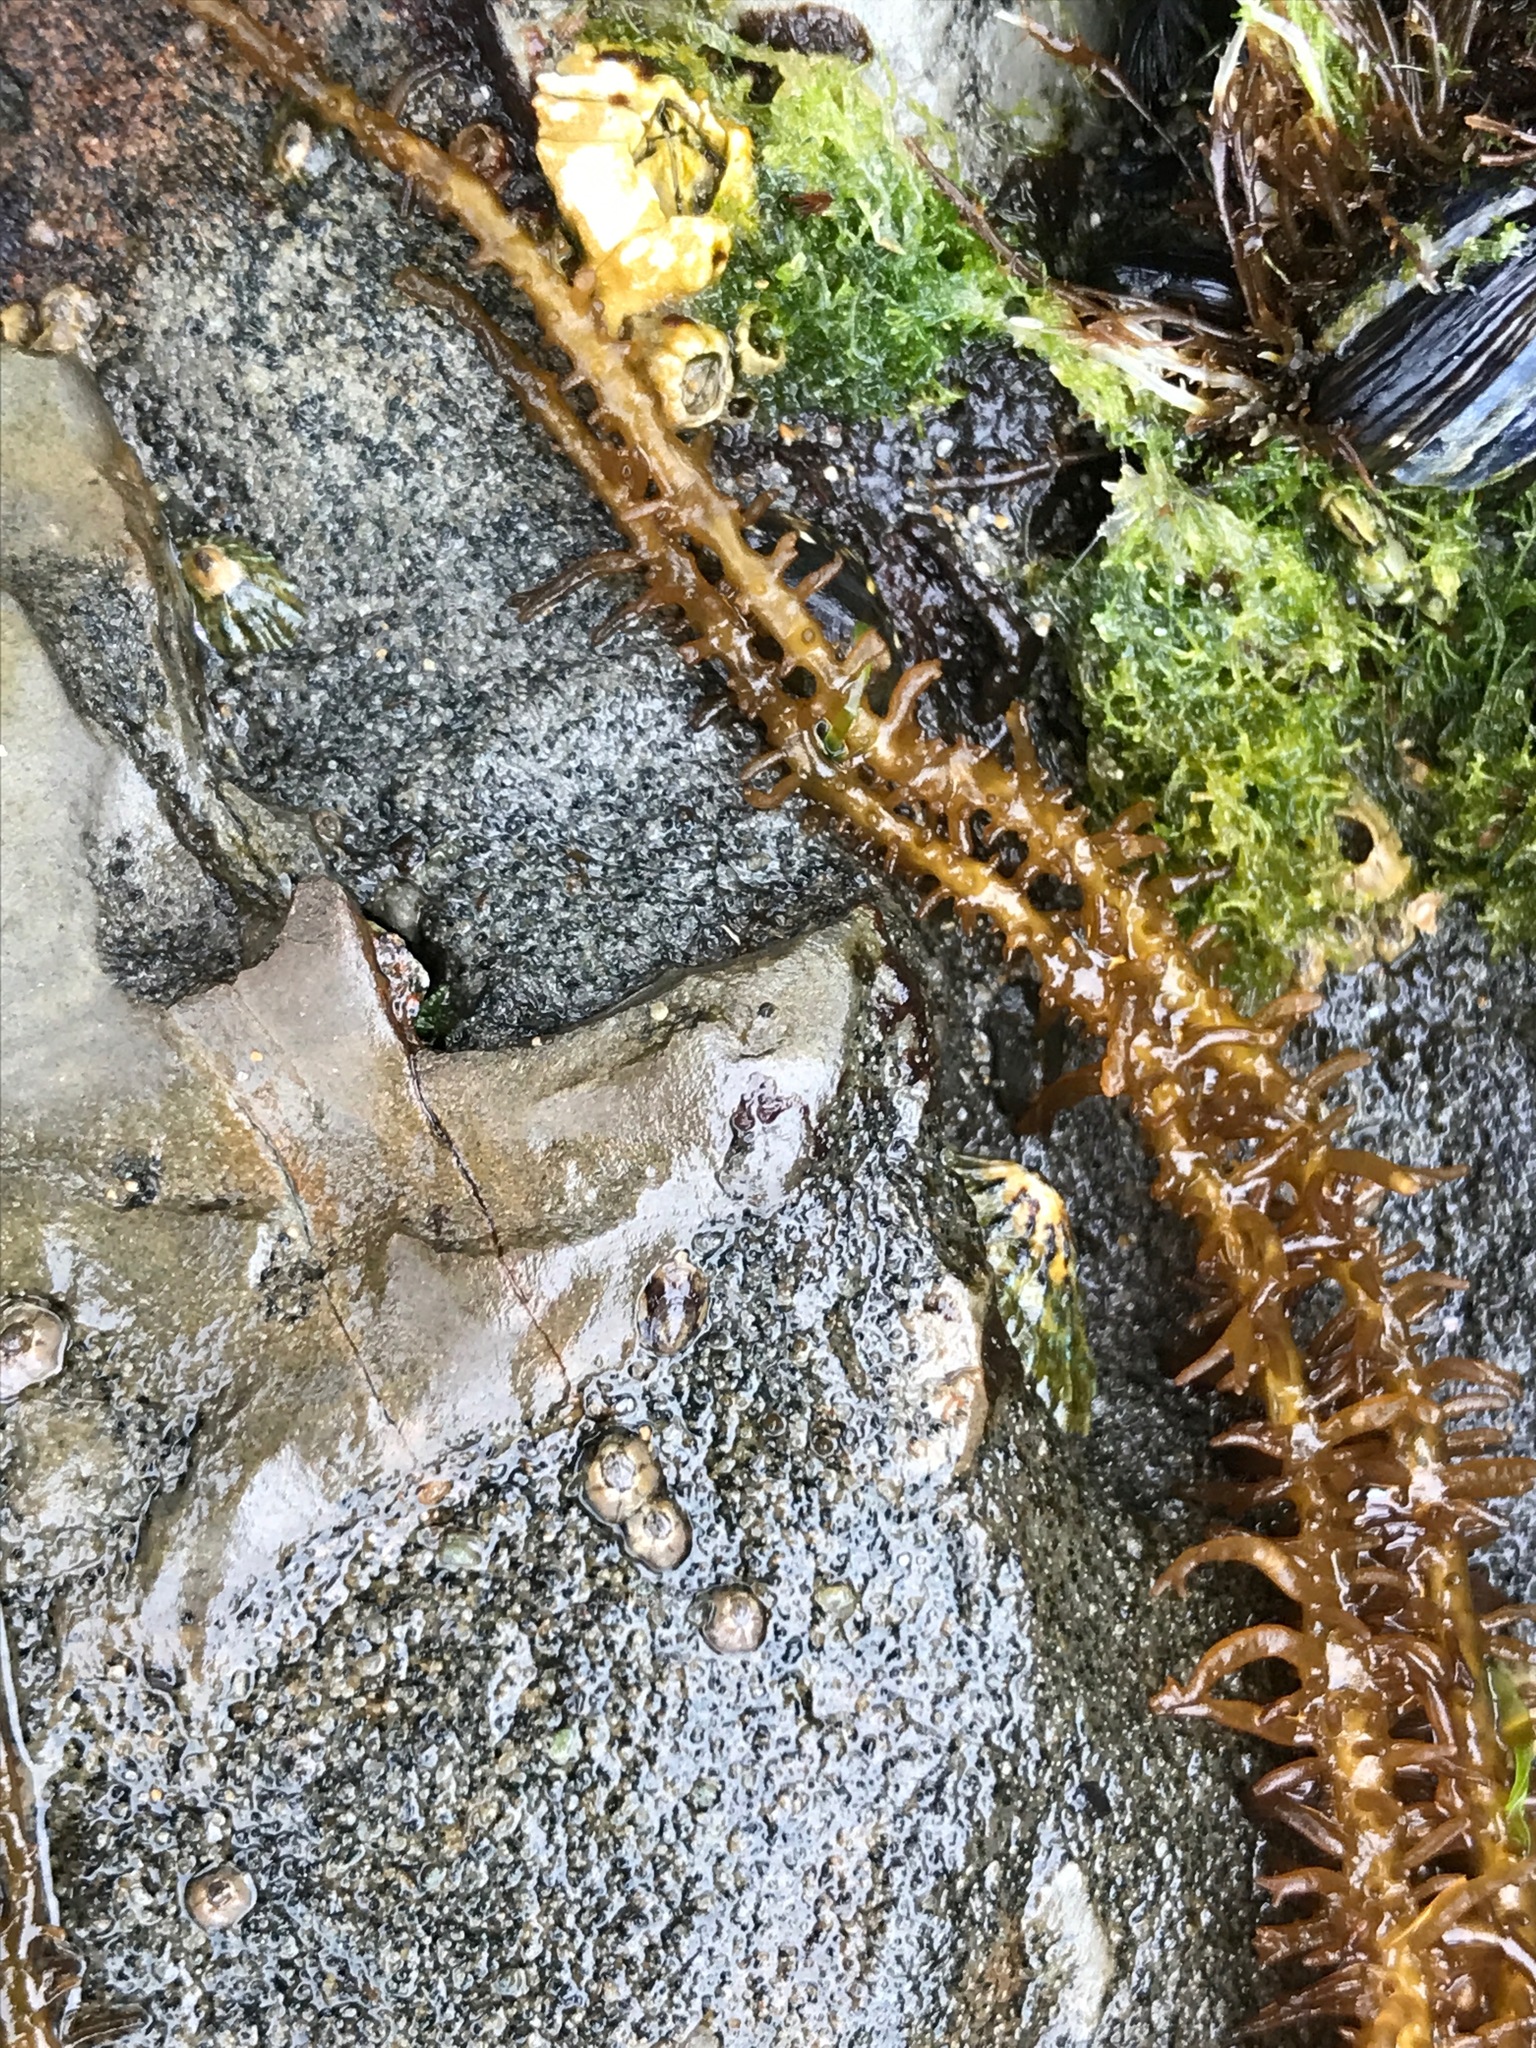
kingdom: Plantae
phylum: Rhodophyta
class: Florideophyceae
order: Nemaliales
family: Liagoraceae
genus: Cumagloia
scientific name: Cumagloia andersonii
